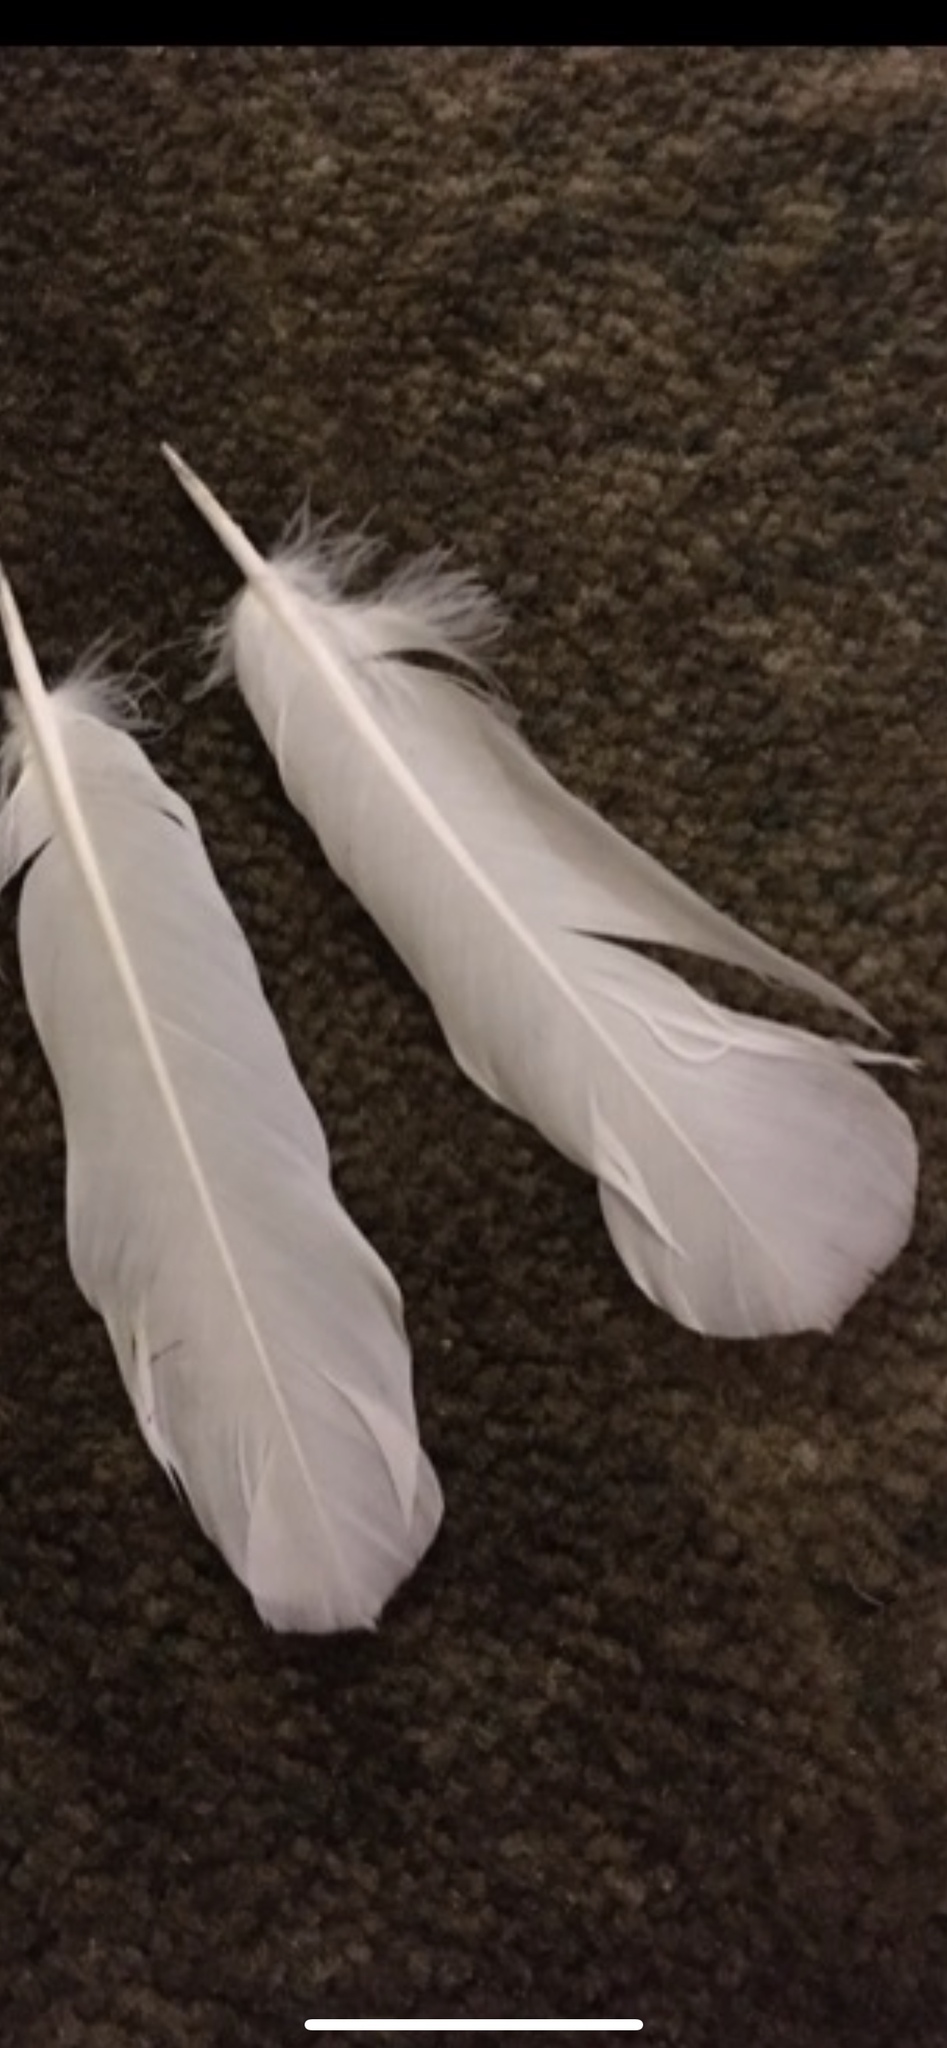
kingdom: Animalia
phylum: Chordata
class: Aves
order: Columbiformes
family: Columbidae
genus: Columba
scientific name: Columba livia
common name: Rock pigeon
